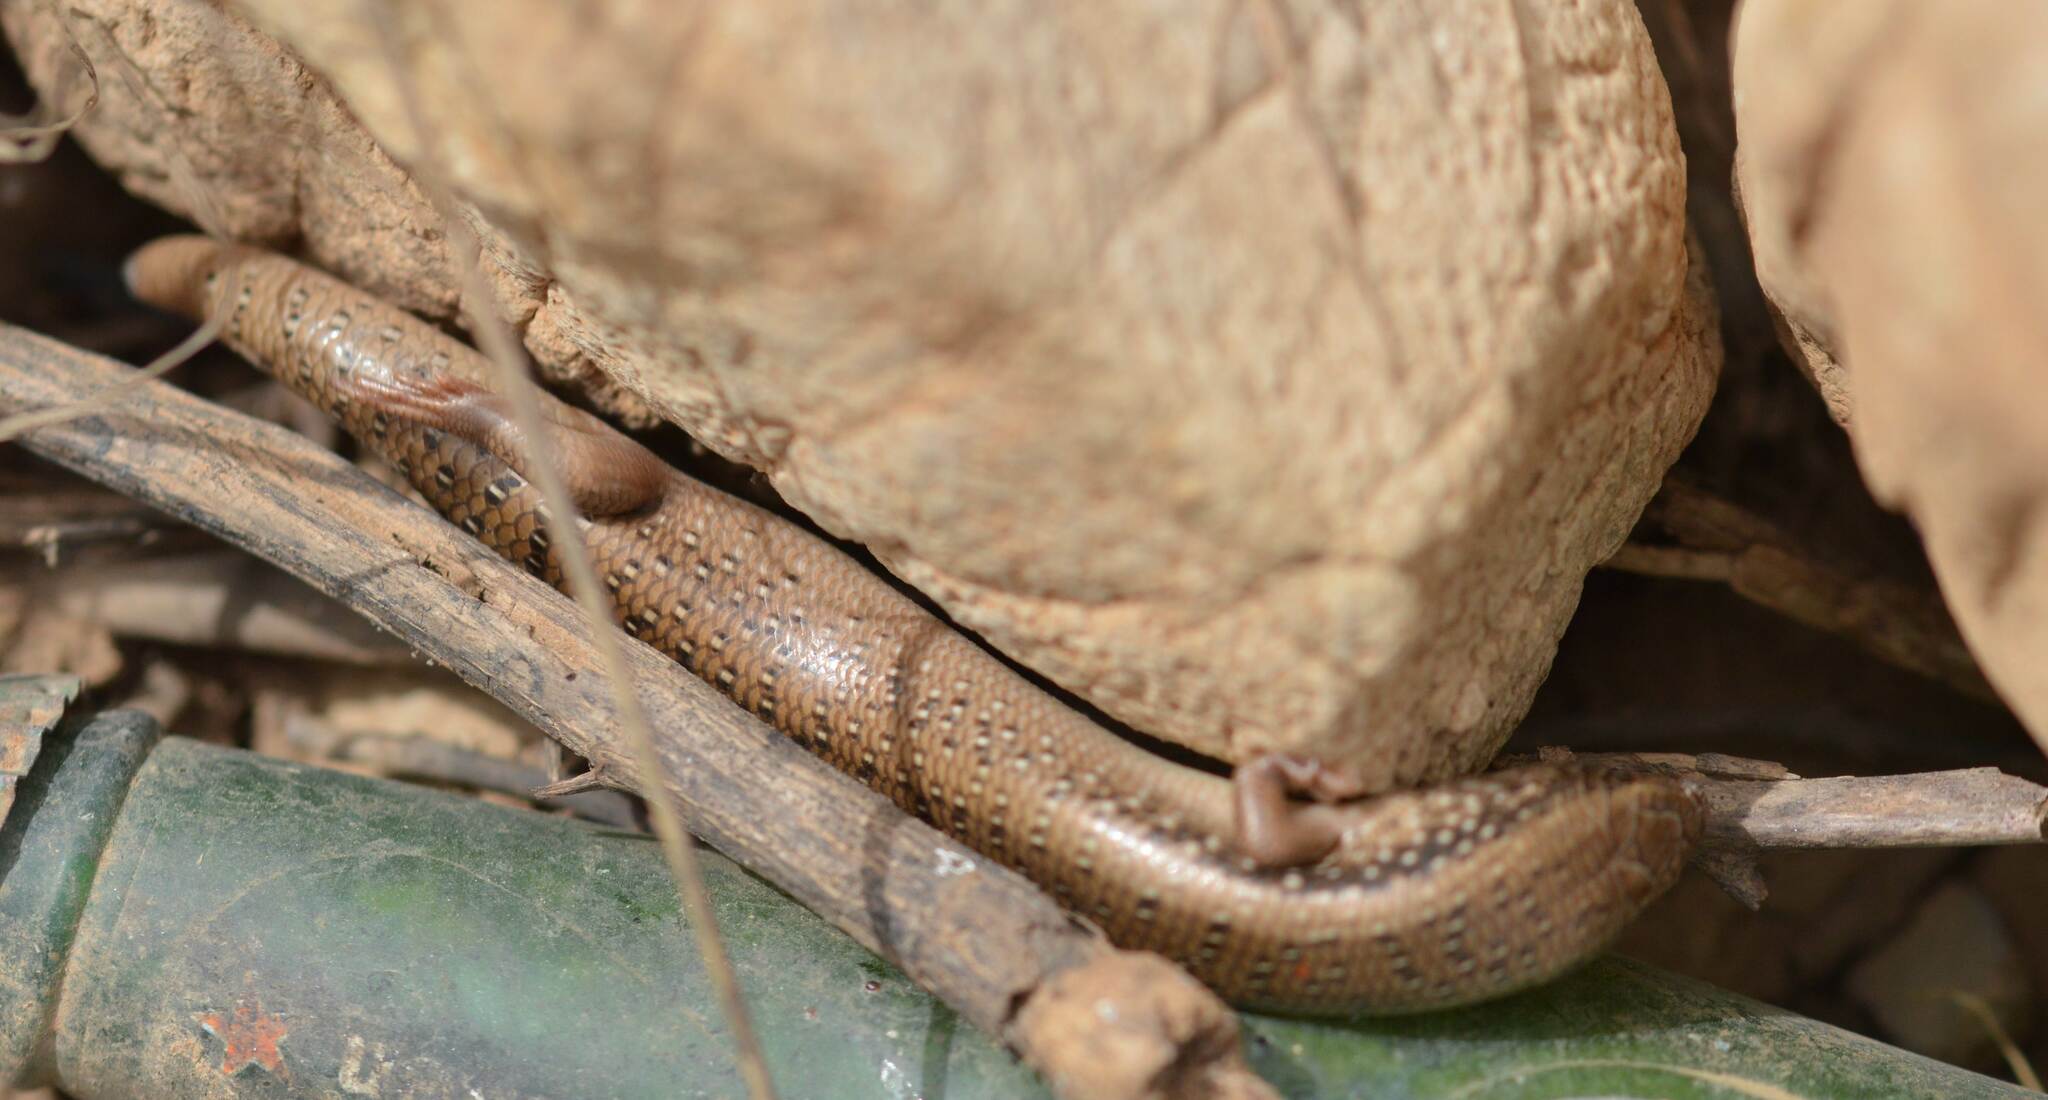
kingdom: Animalia
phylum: Chordata
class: Squamata
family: Scincidae
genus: Chalcides
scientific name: Chalcides ocellatus
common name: Ocellated skink
